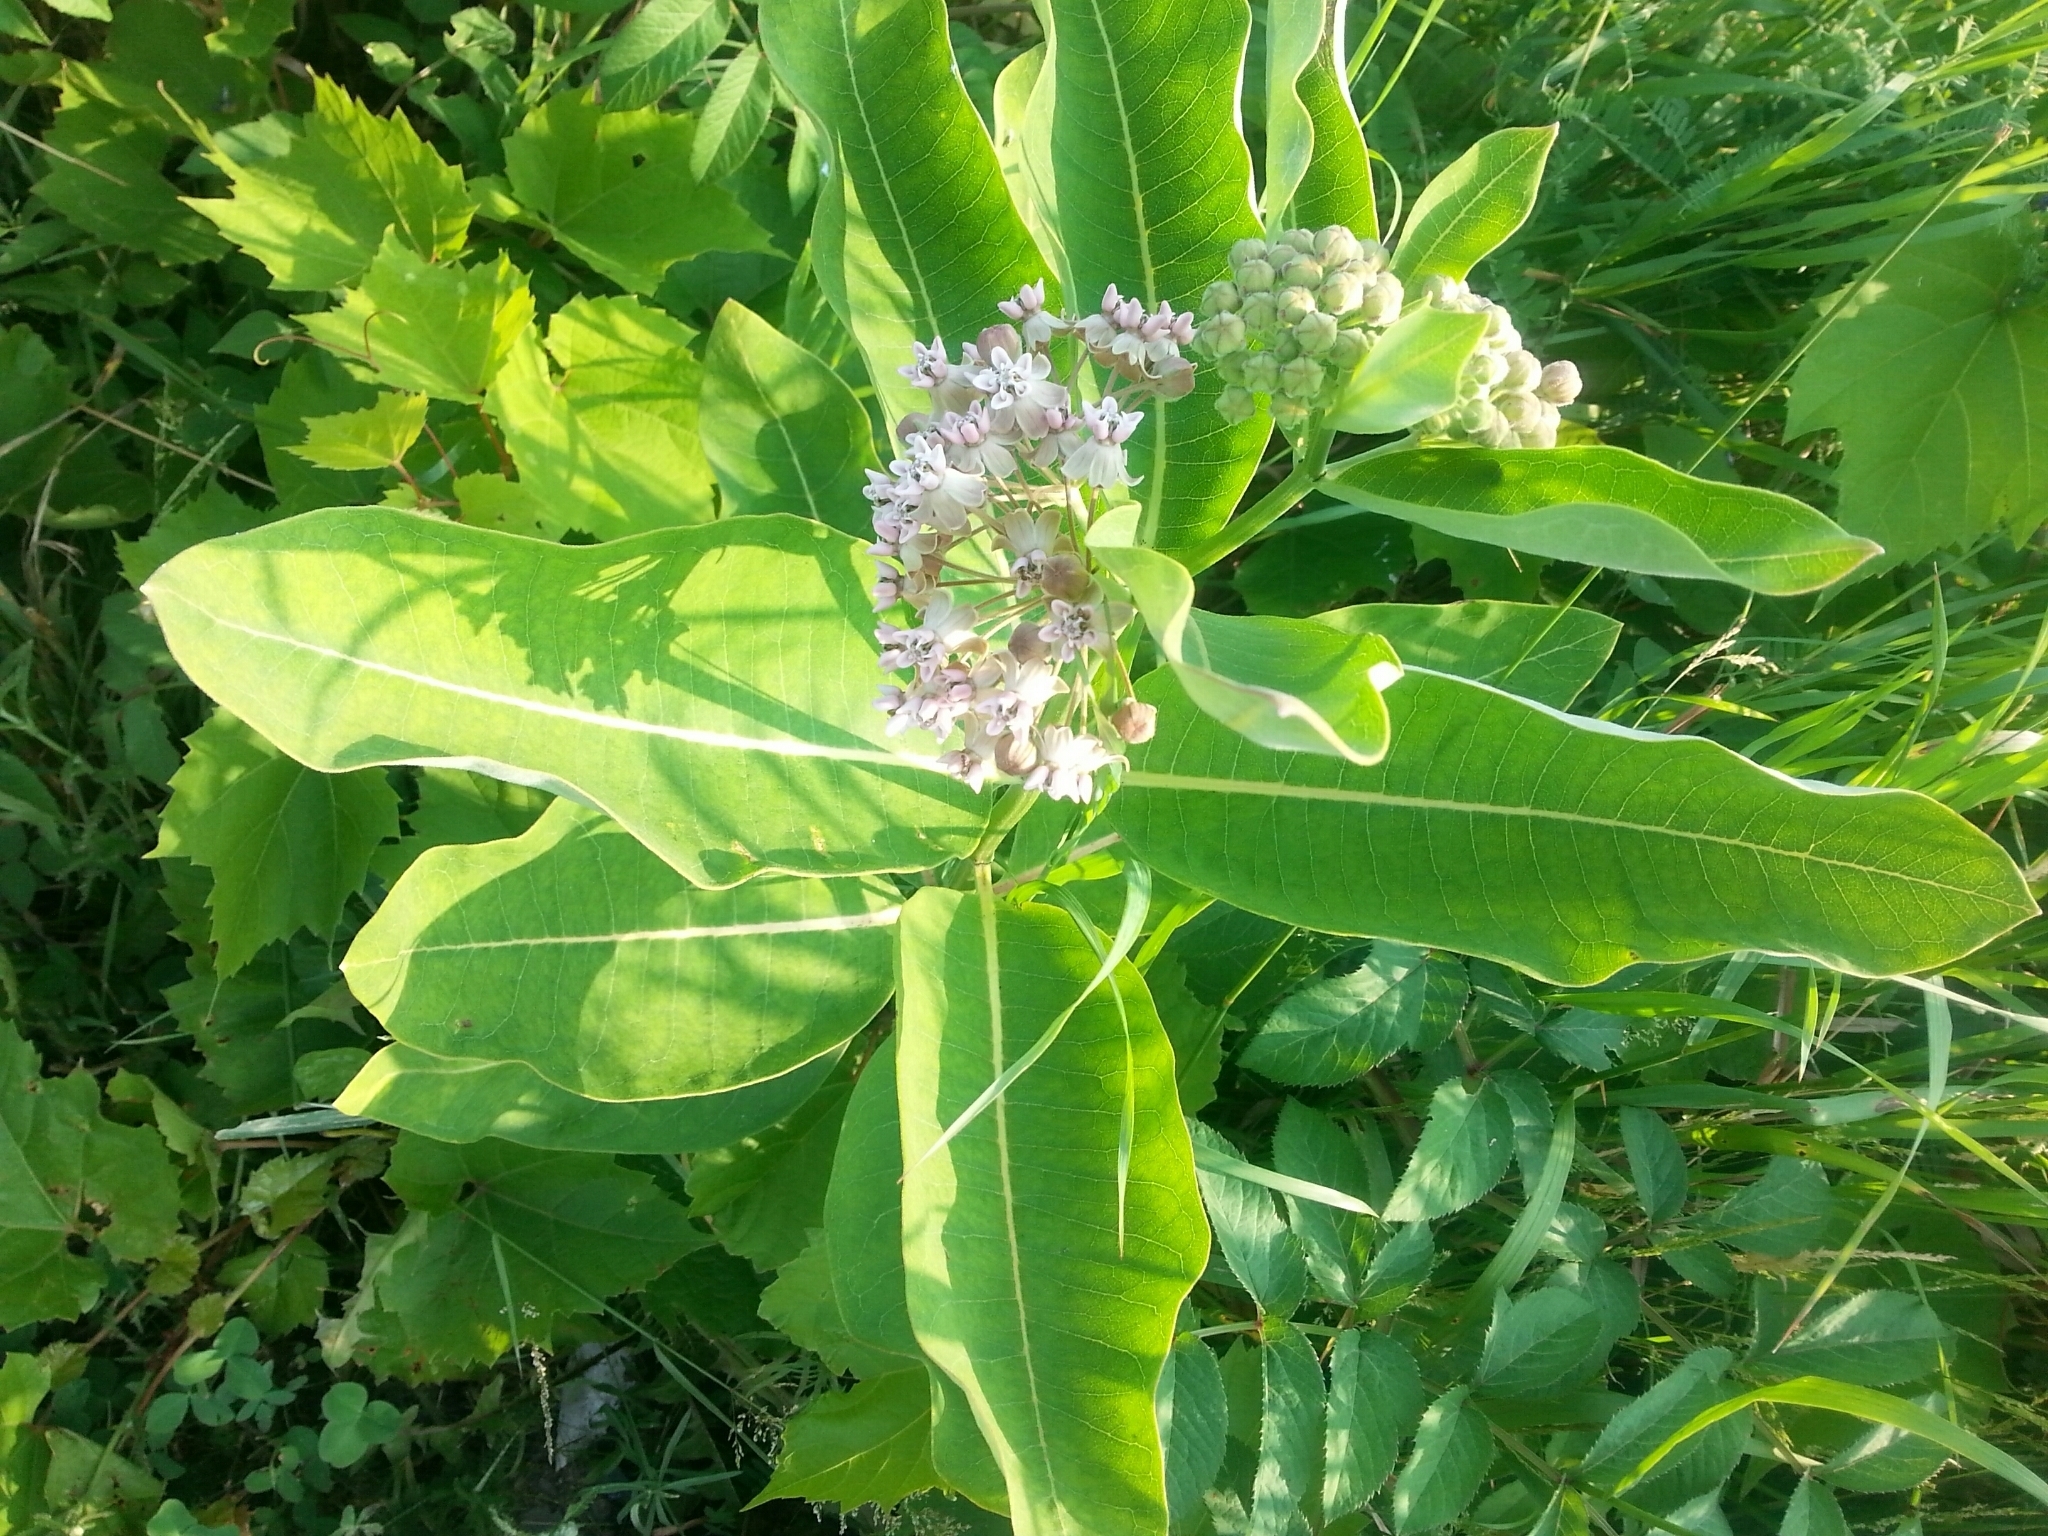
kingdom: Plantae
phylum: Tracheophyta
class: Magnoliopsida
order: Gentianales
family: Apocynaceae
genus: Asclepias
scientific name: Asclepias syriaca
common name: Common milkweed
